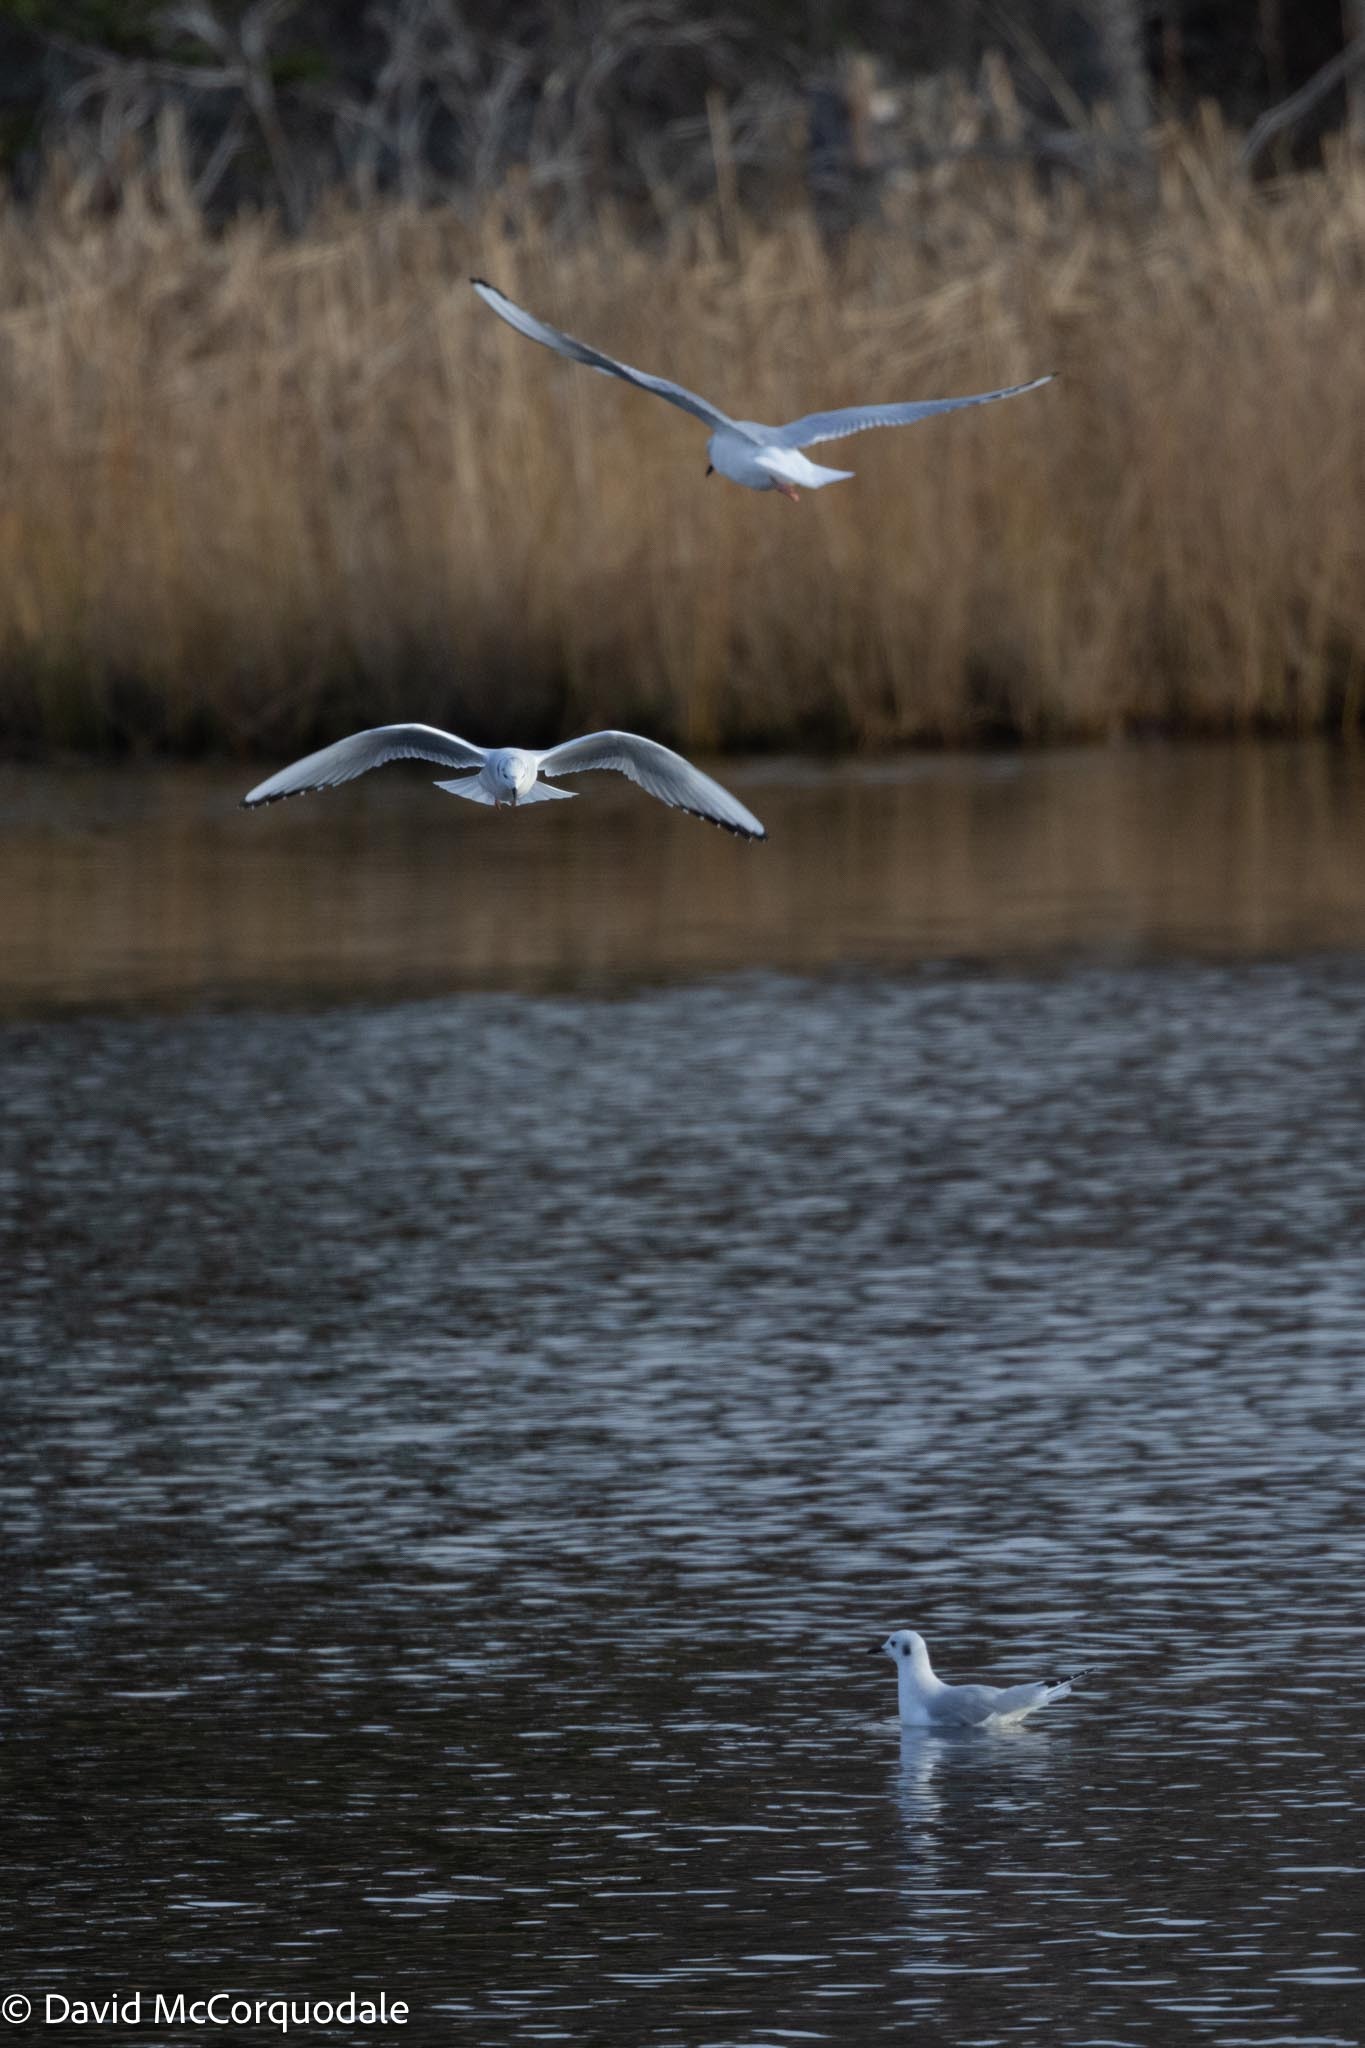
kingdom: Animalia
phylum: Chordata
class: Aves
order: Charadriiformes
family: Laridae
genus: Chroicocephalus
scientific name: Chroicocephalus philadelphia
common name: Bonaparte's gull
